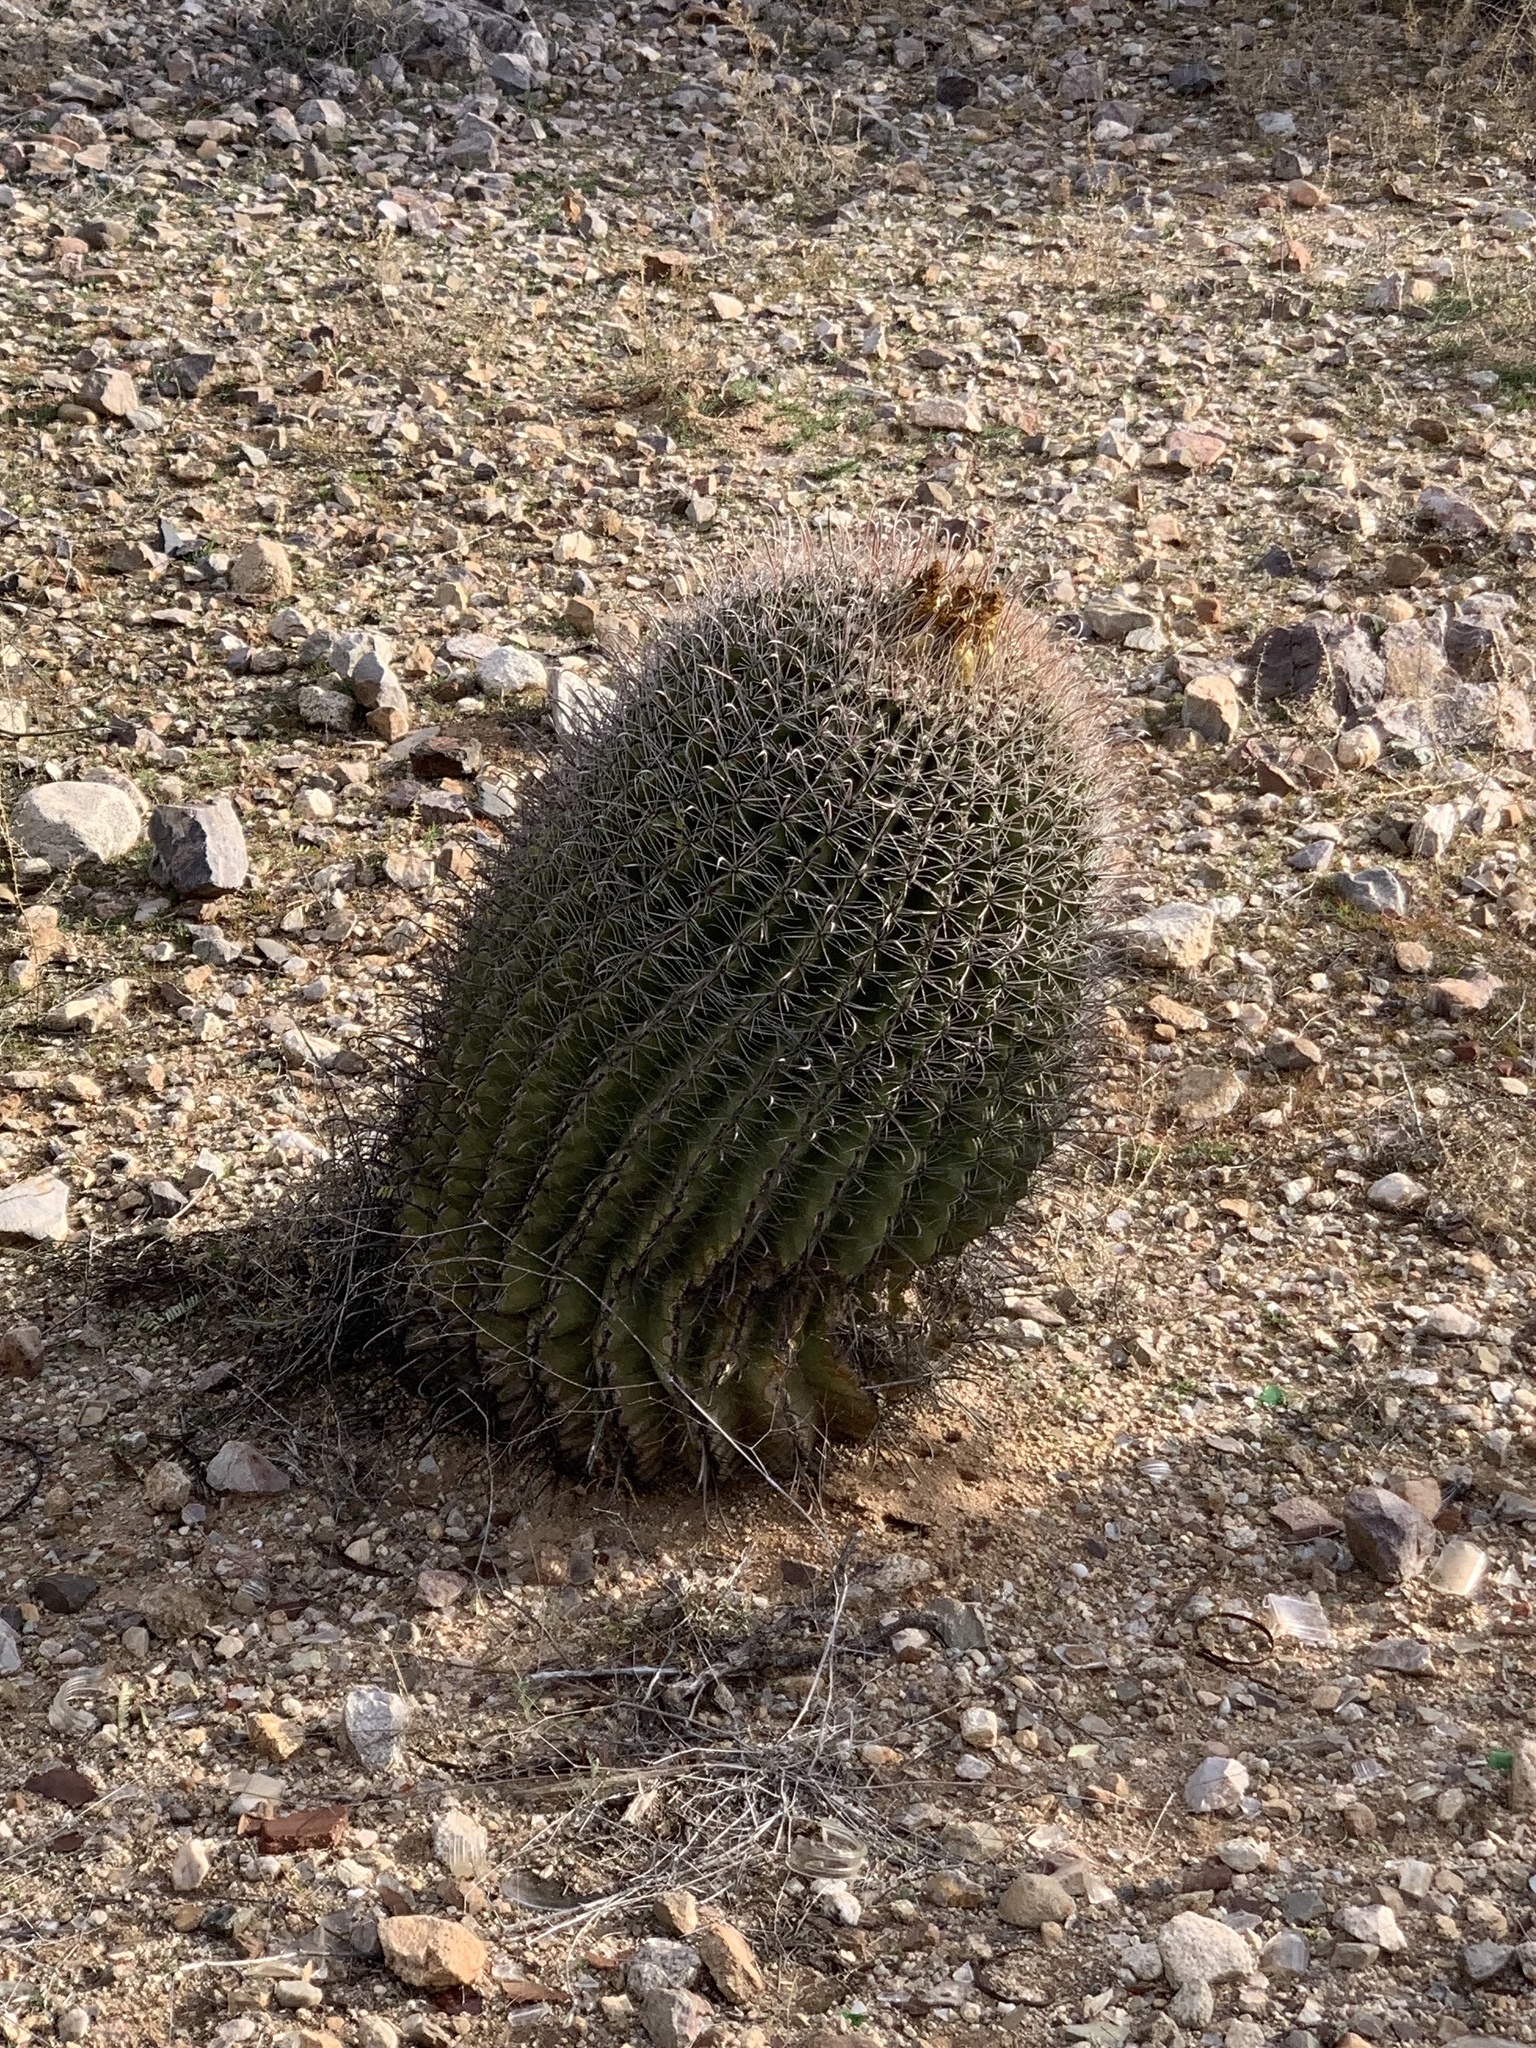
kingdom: Plantae
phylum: Tracheophyta
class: Magnoliopsida
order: Caryophyllales
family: Cactaceae
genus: Ferocactus
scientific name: Ferocactus wislizeni
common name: Candy barrel cactus
